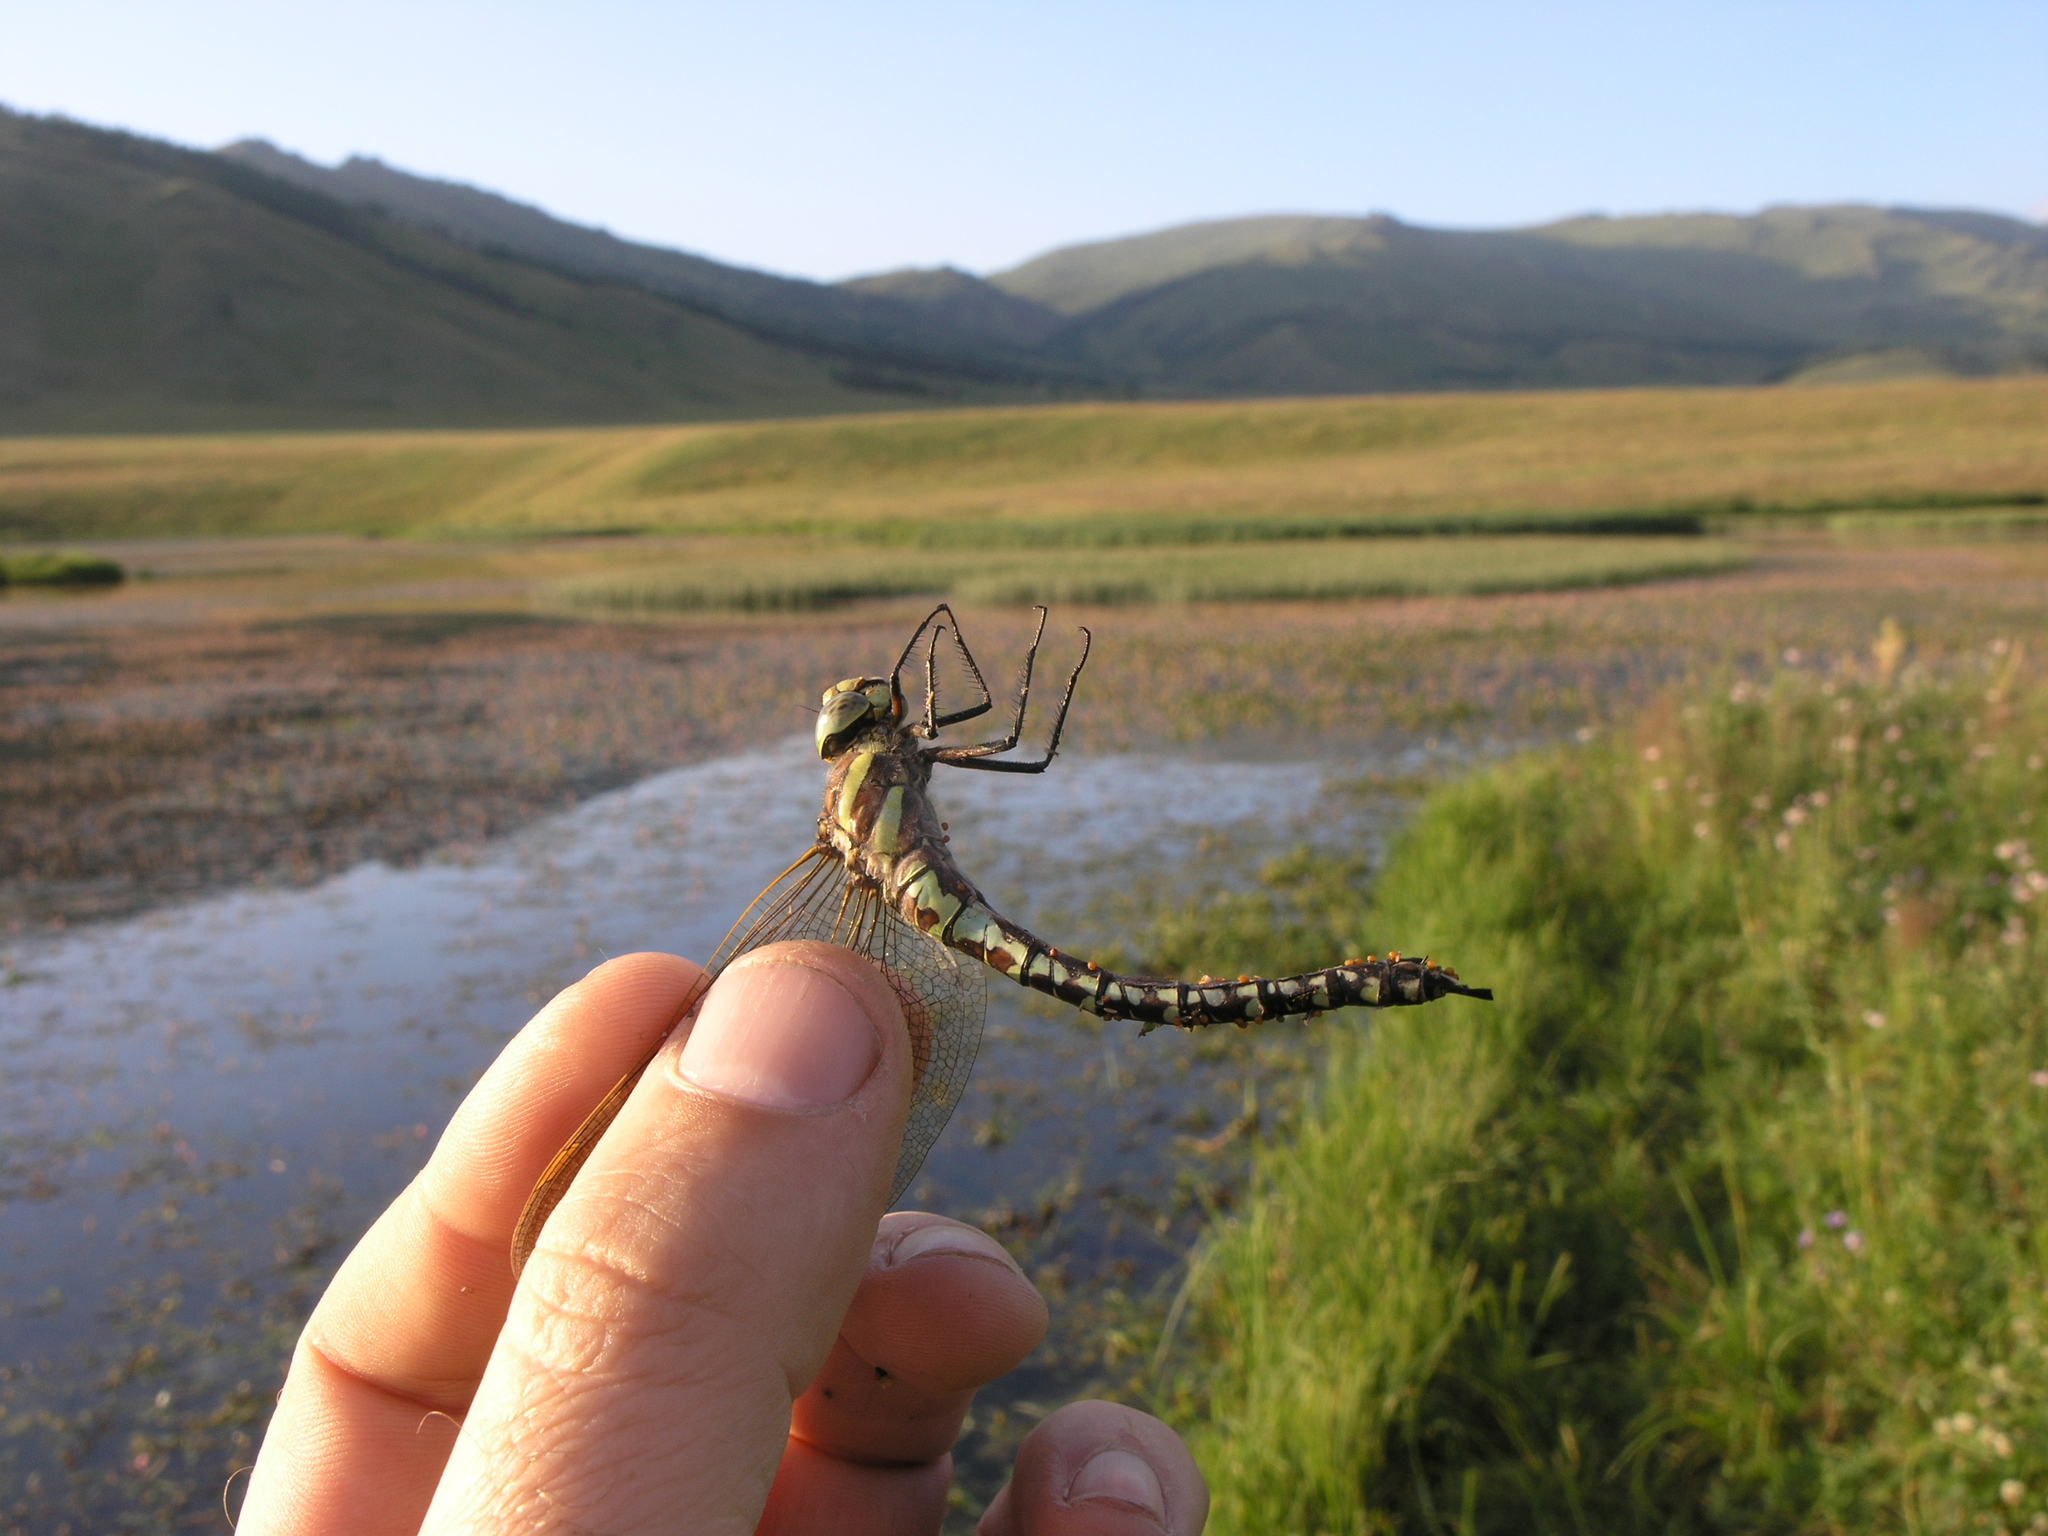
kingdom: Animalia
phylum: Arthropoda
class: Insecta
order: Odonata
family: Aeshnidae
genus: Aeshna
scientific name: Aeshna juncea
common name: Moorland hawker
